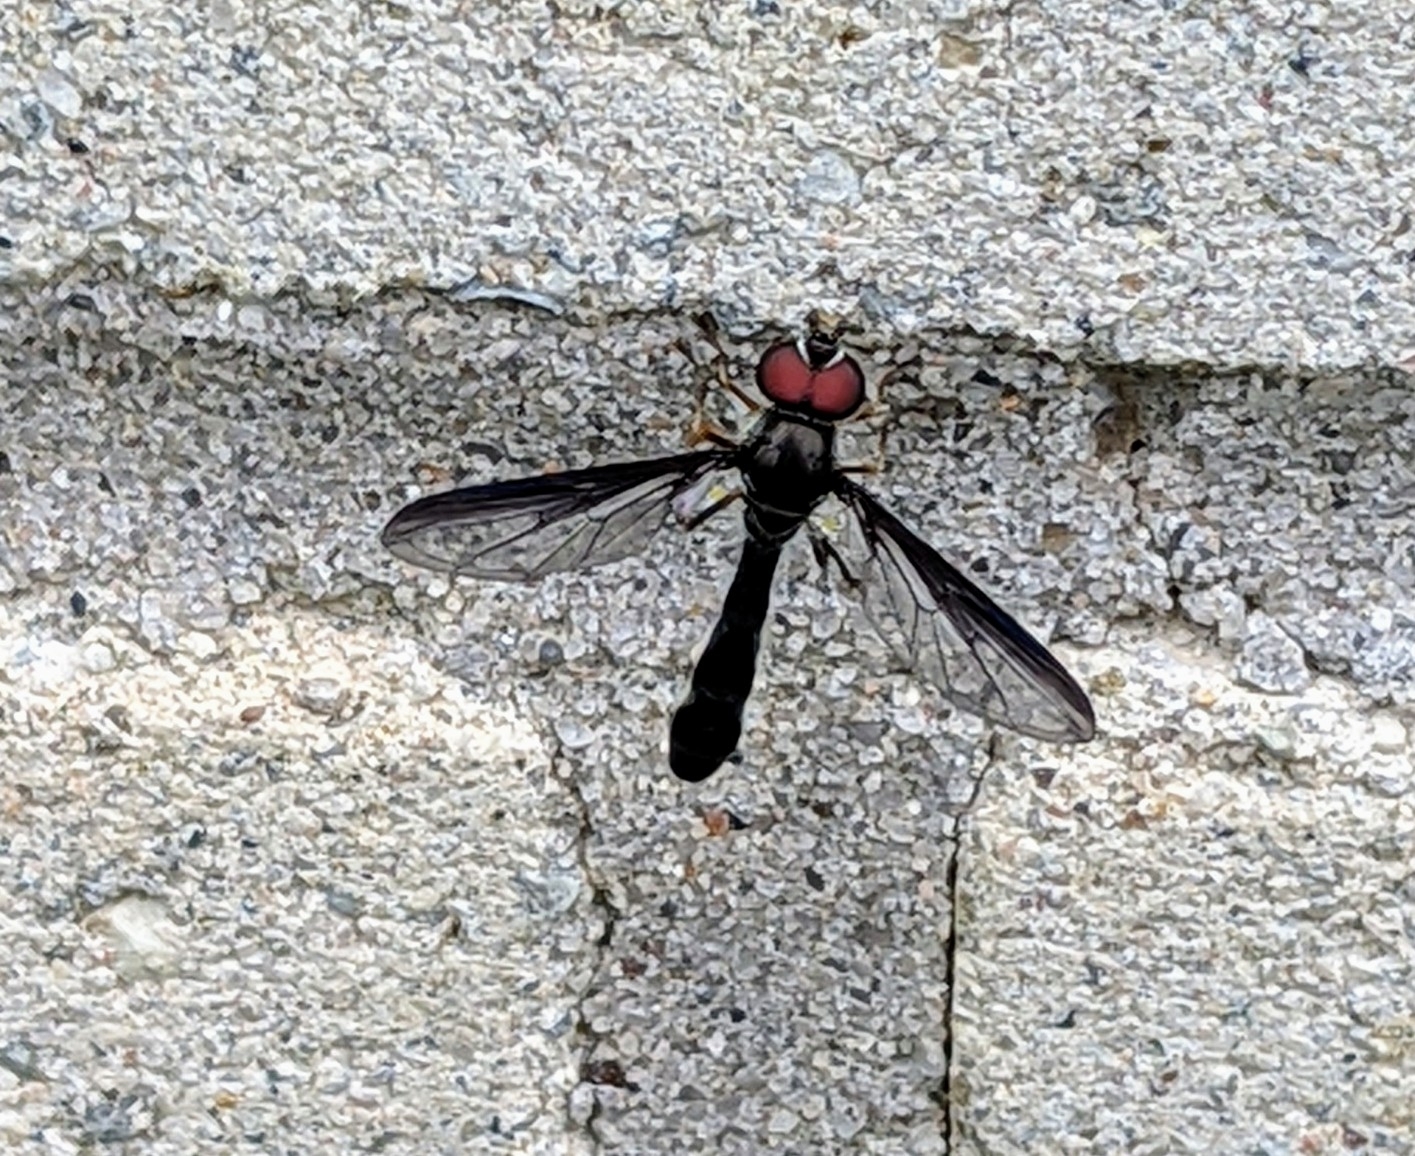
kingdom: Animalia
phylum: Arthropoda
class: Insecta
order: Diptera
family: Syrphidae
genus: Ocyptamus
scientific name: Ocyptamus costatus
